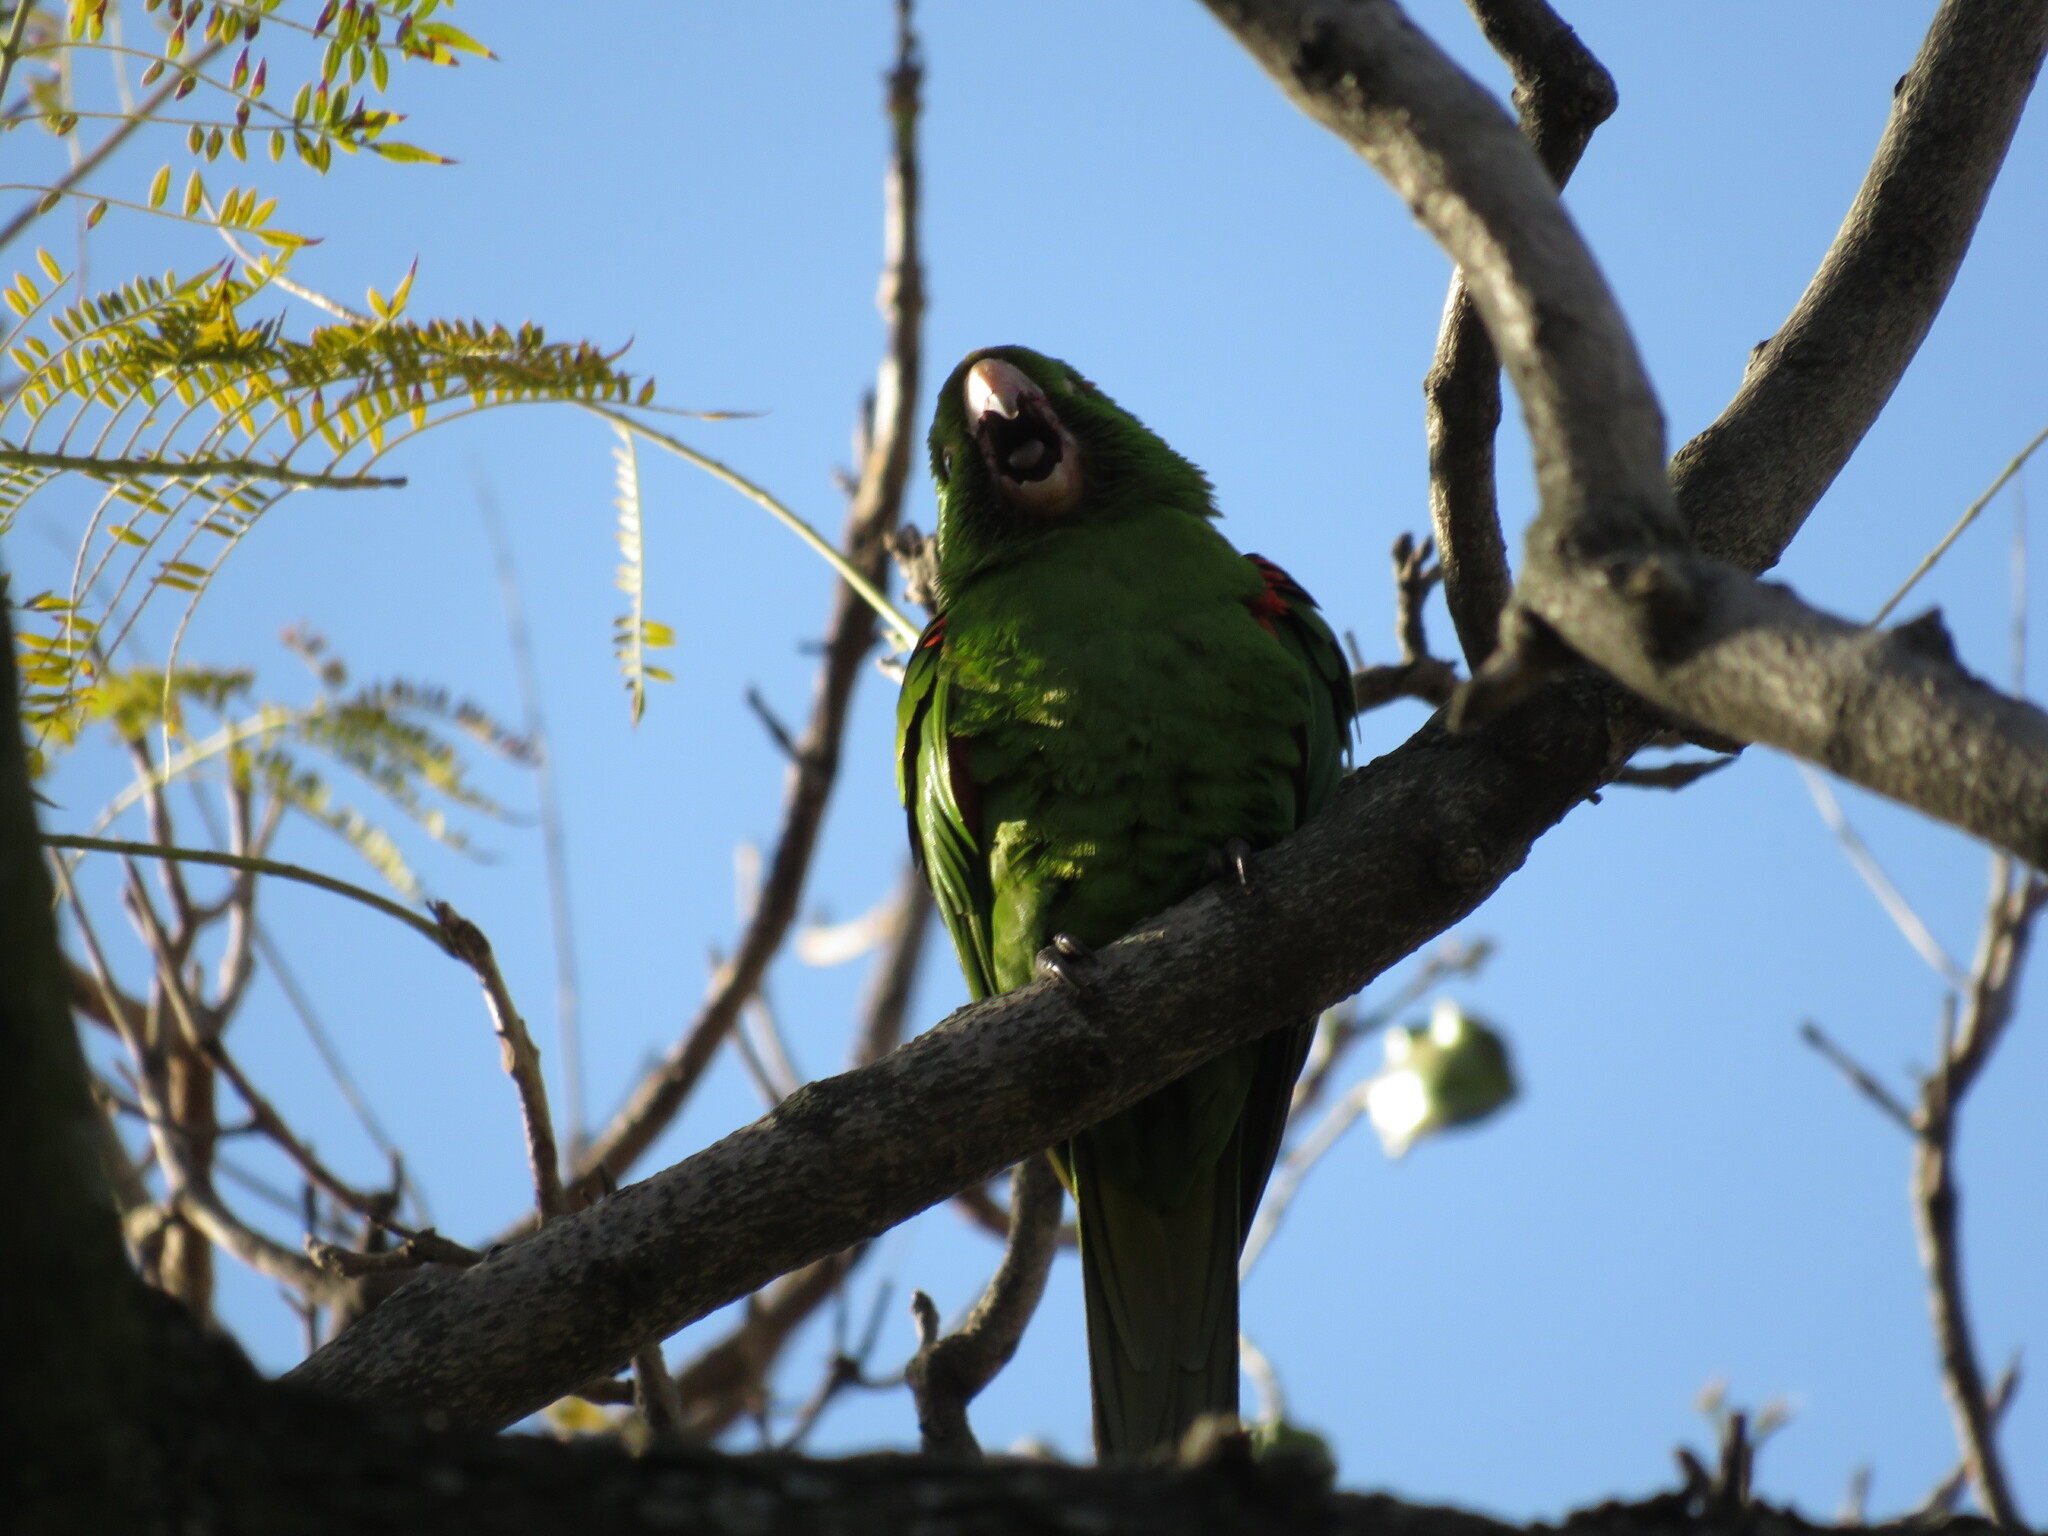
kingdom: Animalia
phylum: Chordata
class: Aves
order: Psittaciformes
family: Psittacidae
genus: Aratinga
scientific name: Aratinga leucophthalma
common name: White-eyed parakeet
